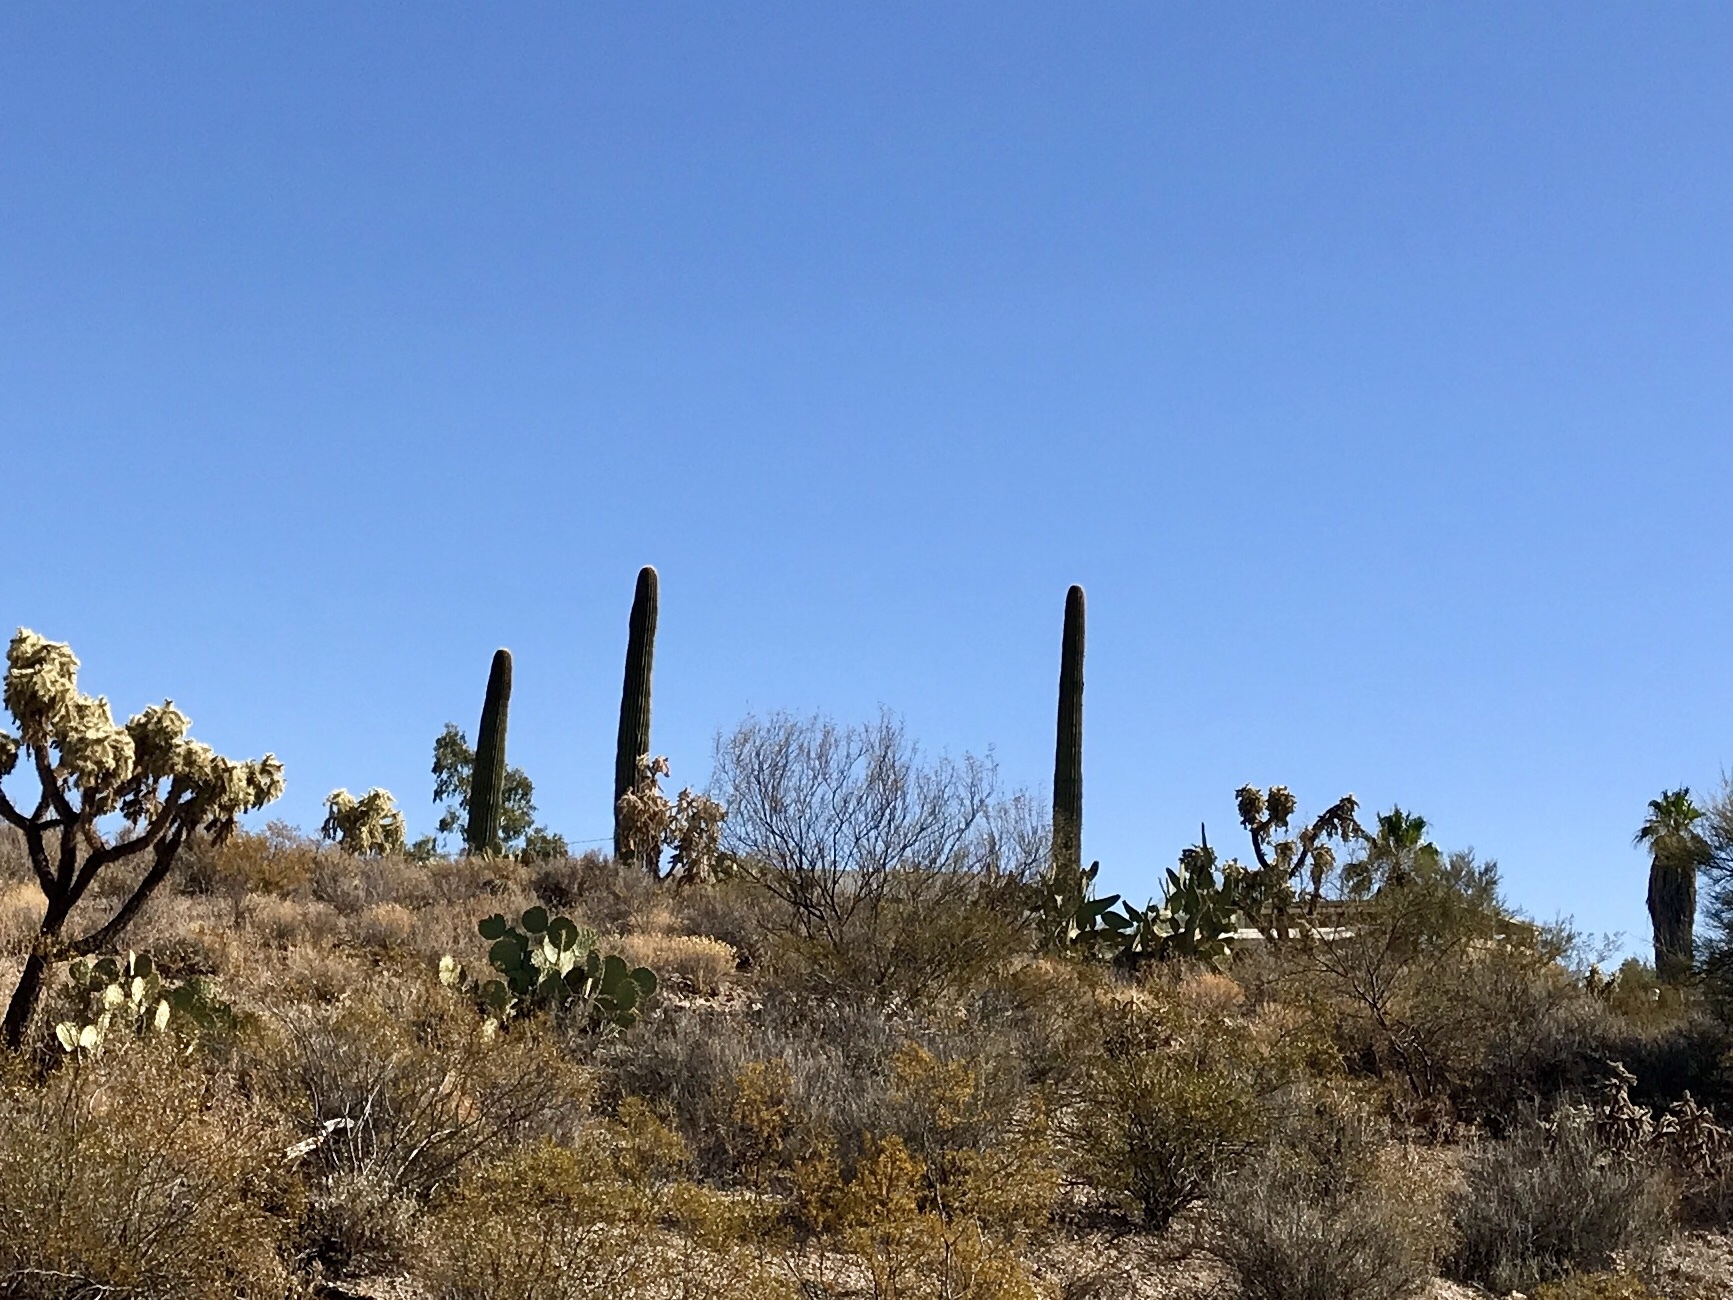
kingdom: Plantae
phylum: Tracheophyta
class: Magnoliopsida
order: Caryophyllales
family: Cactaceae
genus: Carnegiea
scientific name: Carnegiea gigantea
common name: Saguaro
